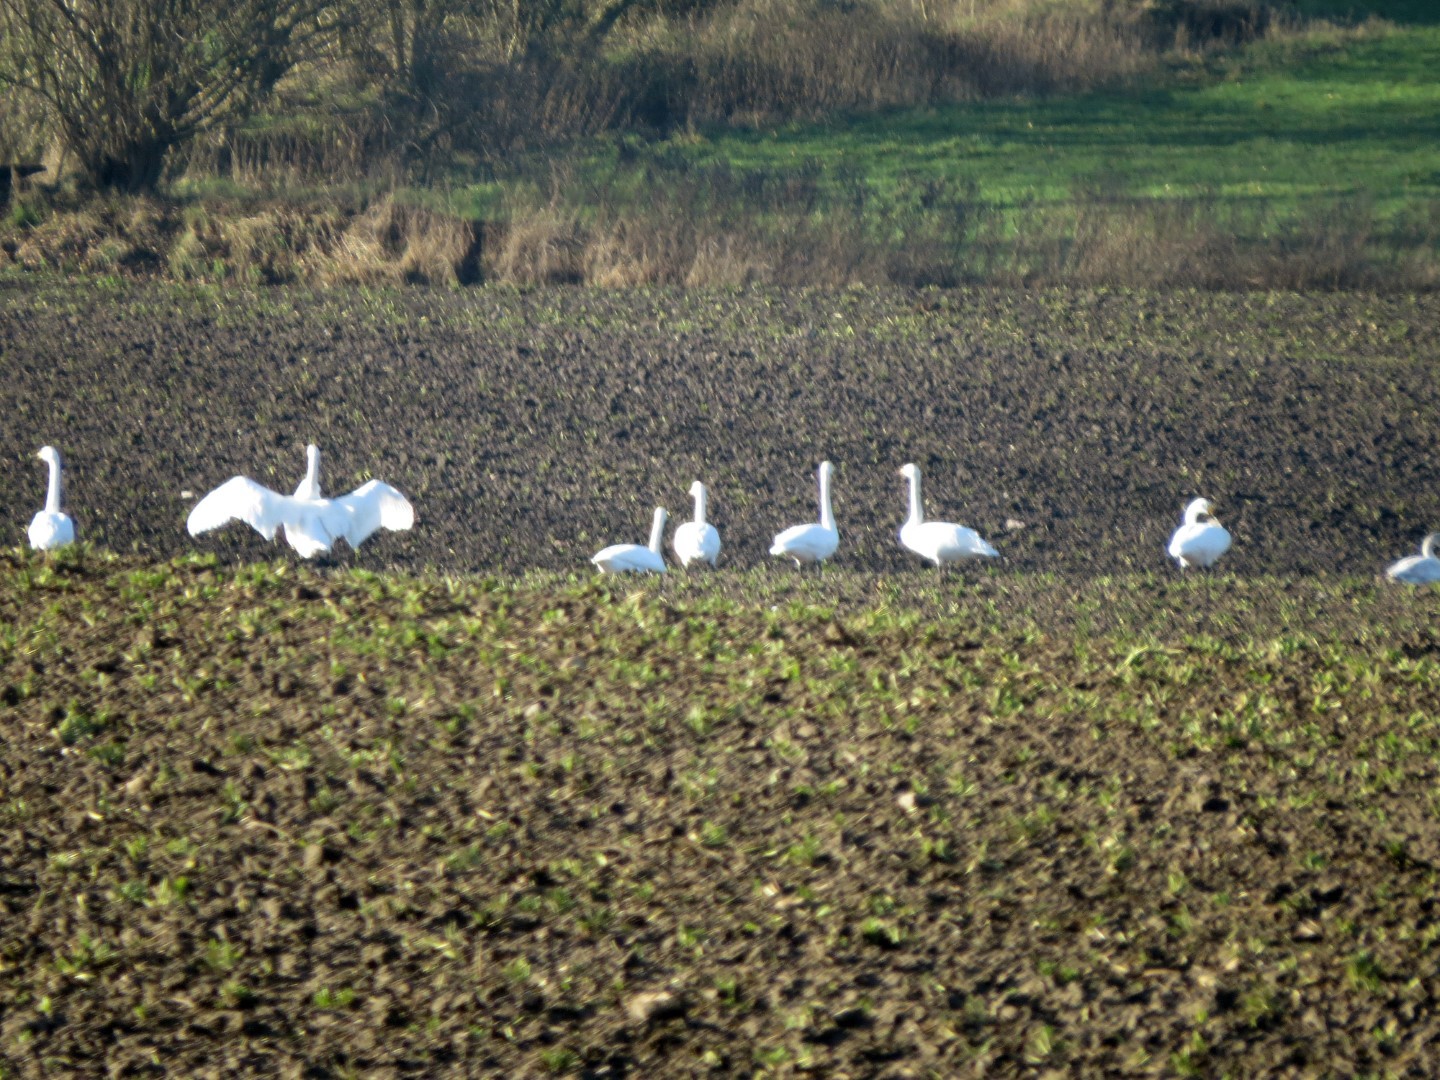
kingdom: Animalia
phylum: Chordata
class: Aves
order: Anseriformes
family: Anatidae
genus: Cygnus
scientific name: Cygnus cygnus
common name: Whooper swan
